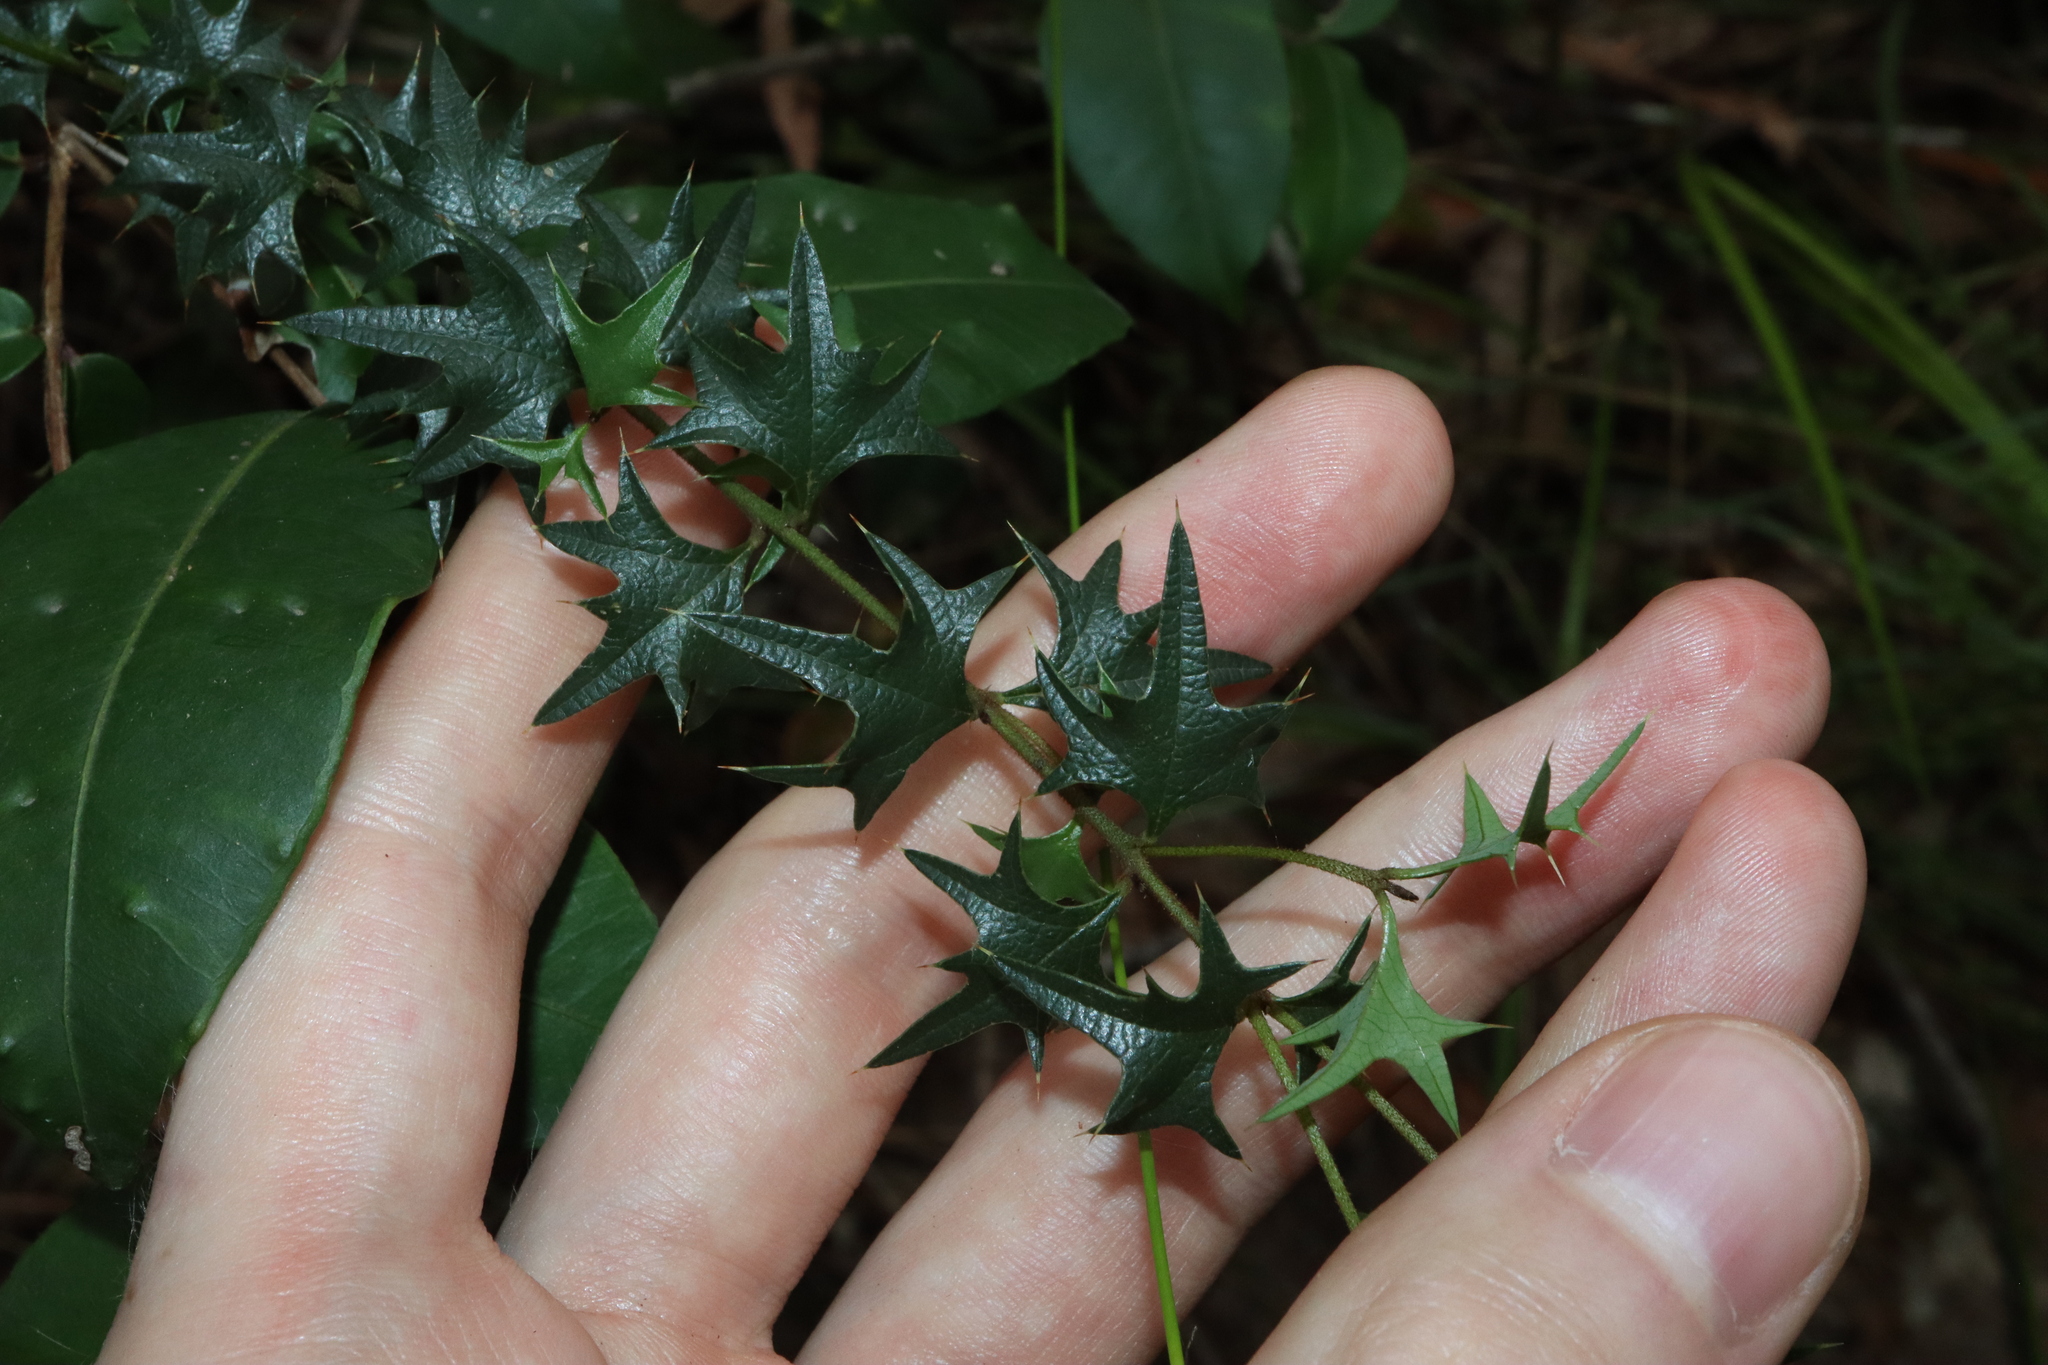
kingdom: Plantae
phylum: Tracheophyta
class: Magnoliopsida
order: Fabales
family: Fabaceae
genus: Podolobium
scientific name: Podolobium ilicifolium
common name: Native holly
